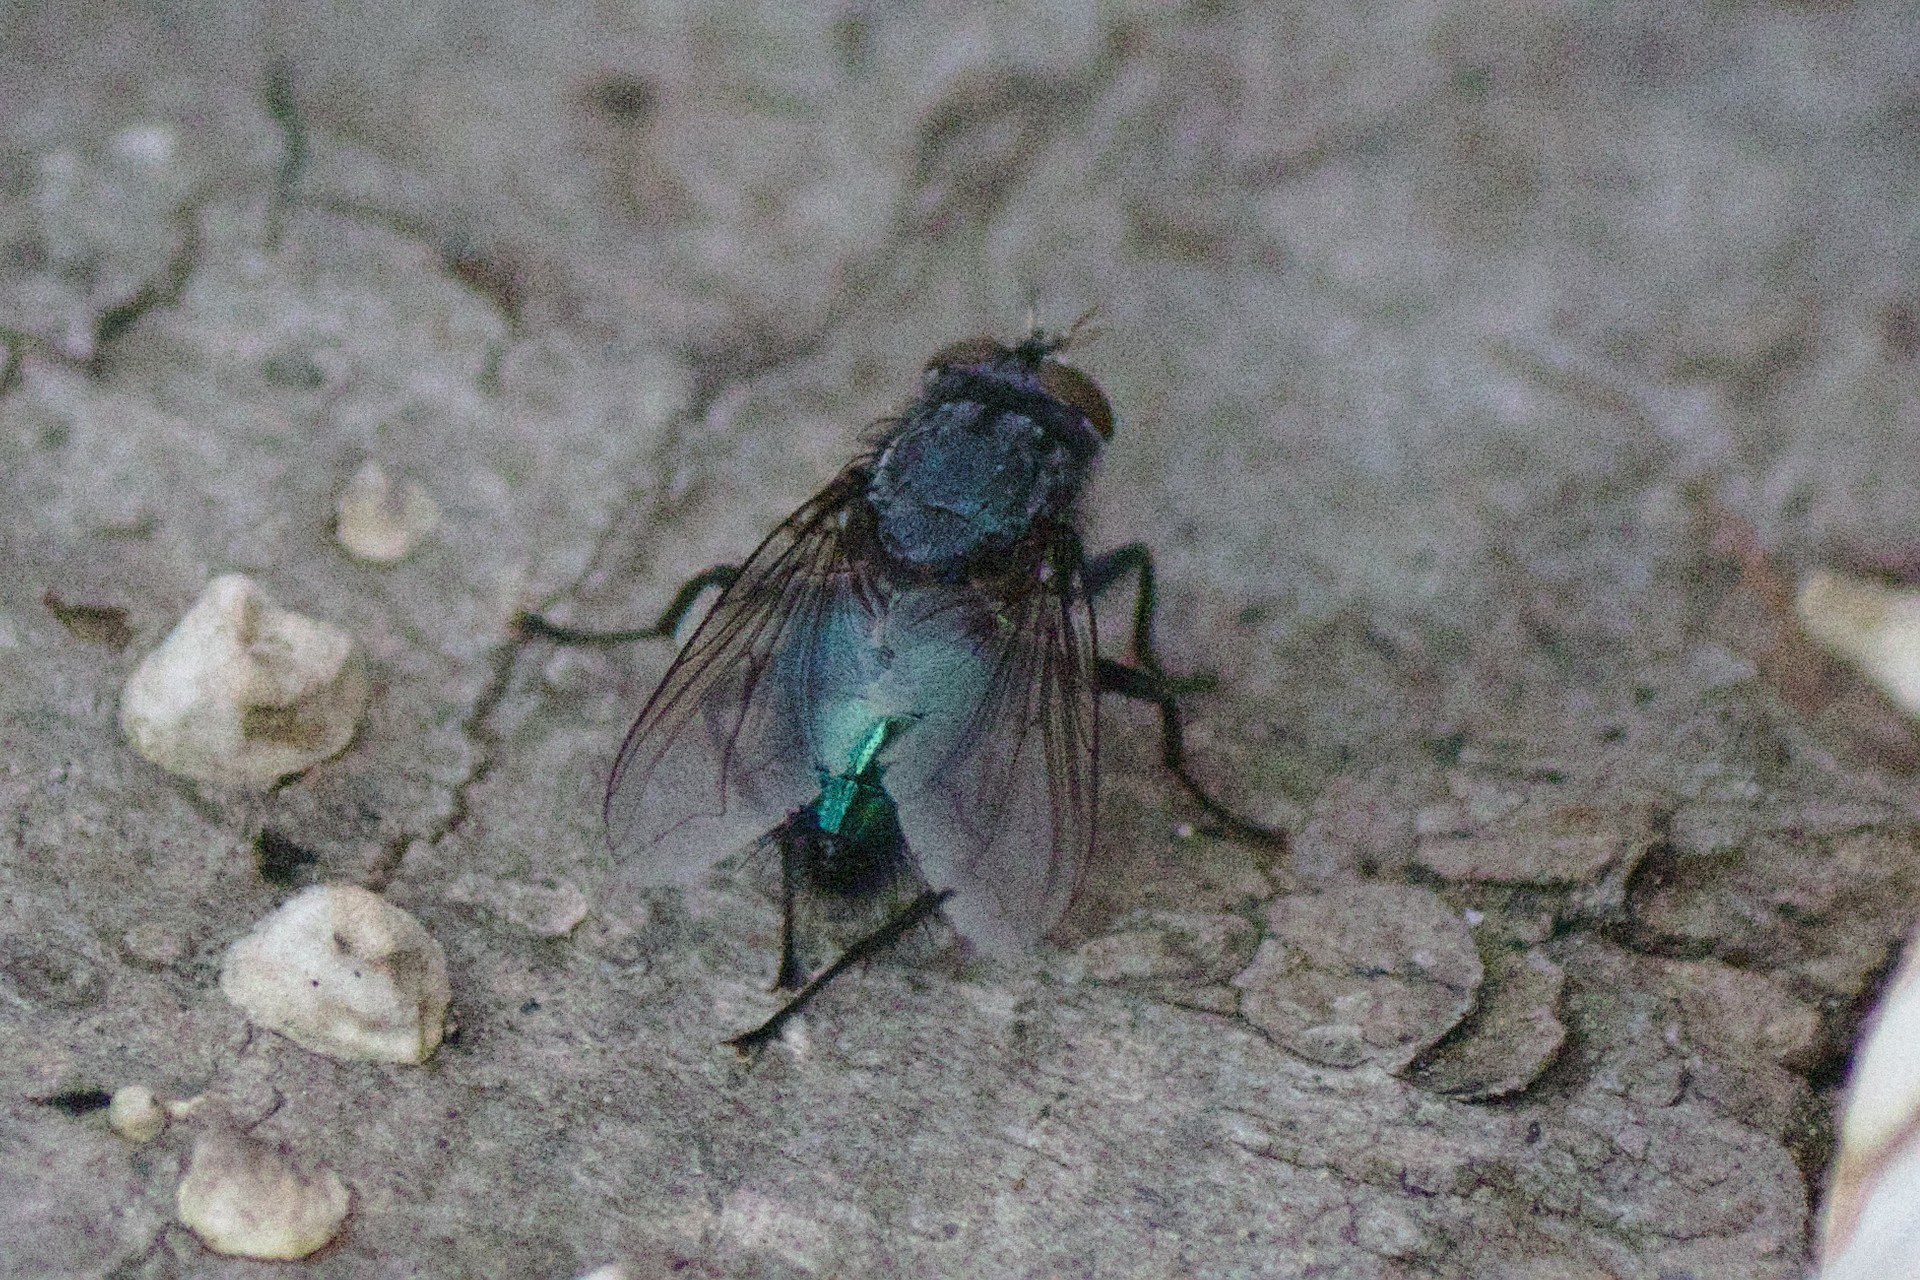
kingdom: Animalia
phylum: Arthropoda
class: Insecta
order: Diptera
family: Calliphoridae
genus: Cynomya
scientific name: Cynomya cadaverina
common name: Shiny blue bottle fly
